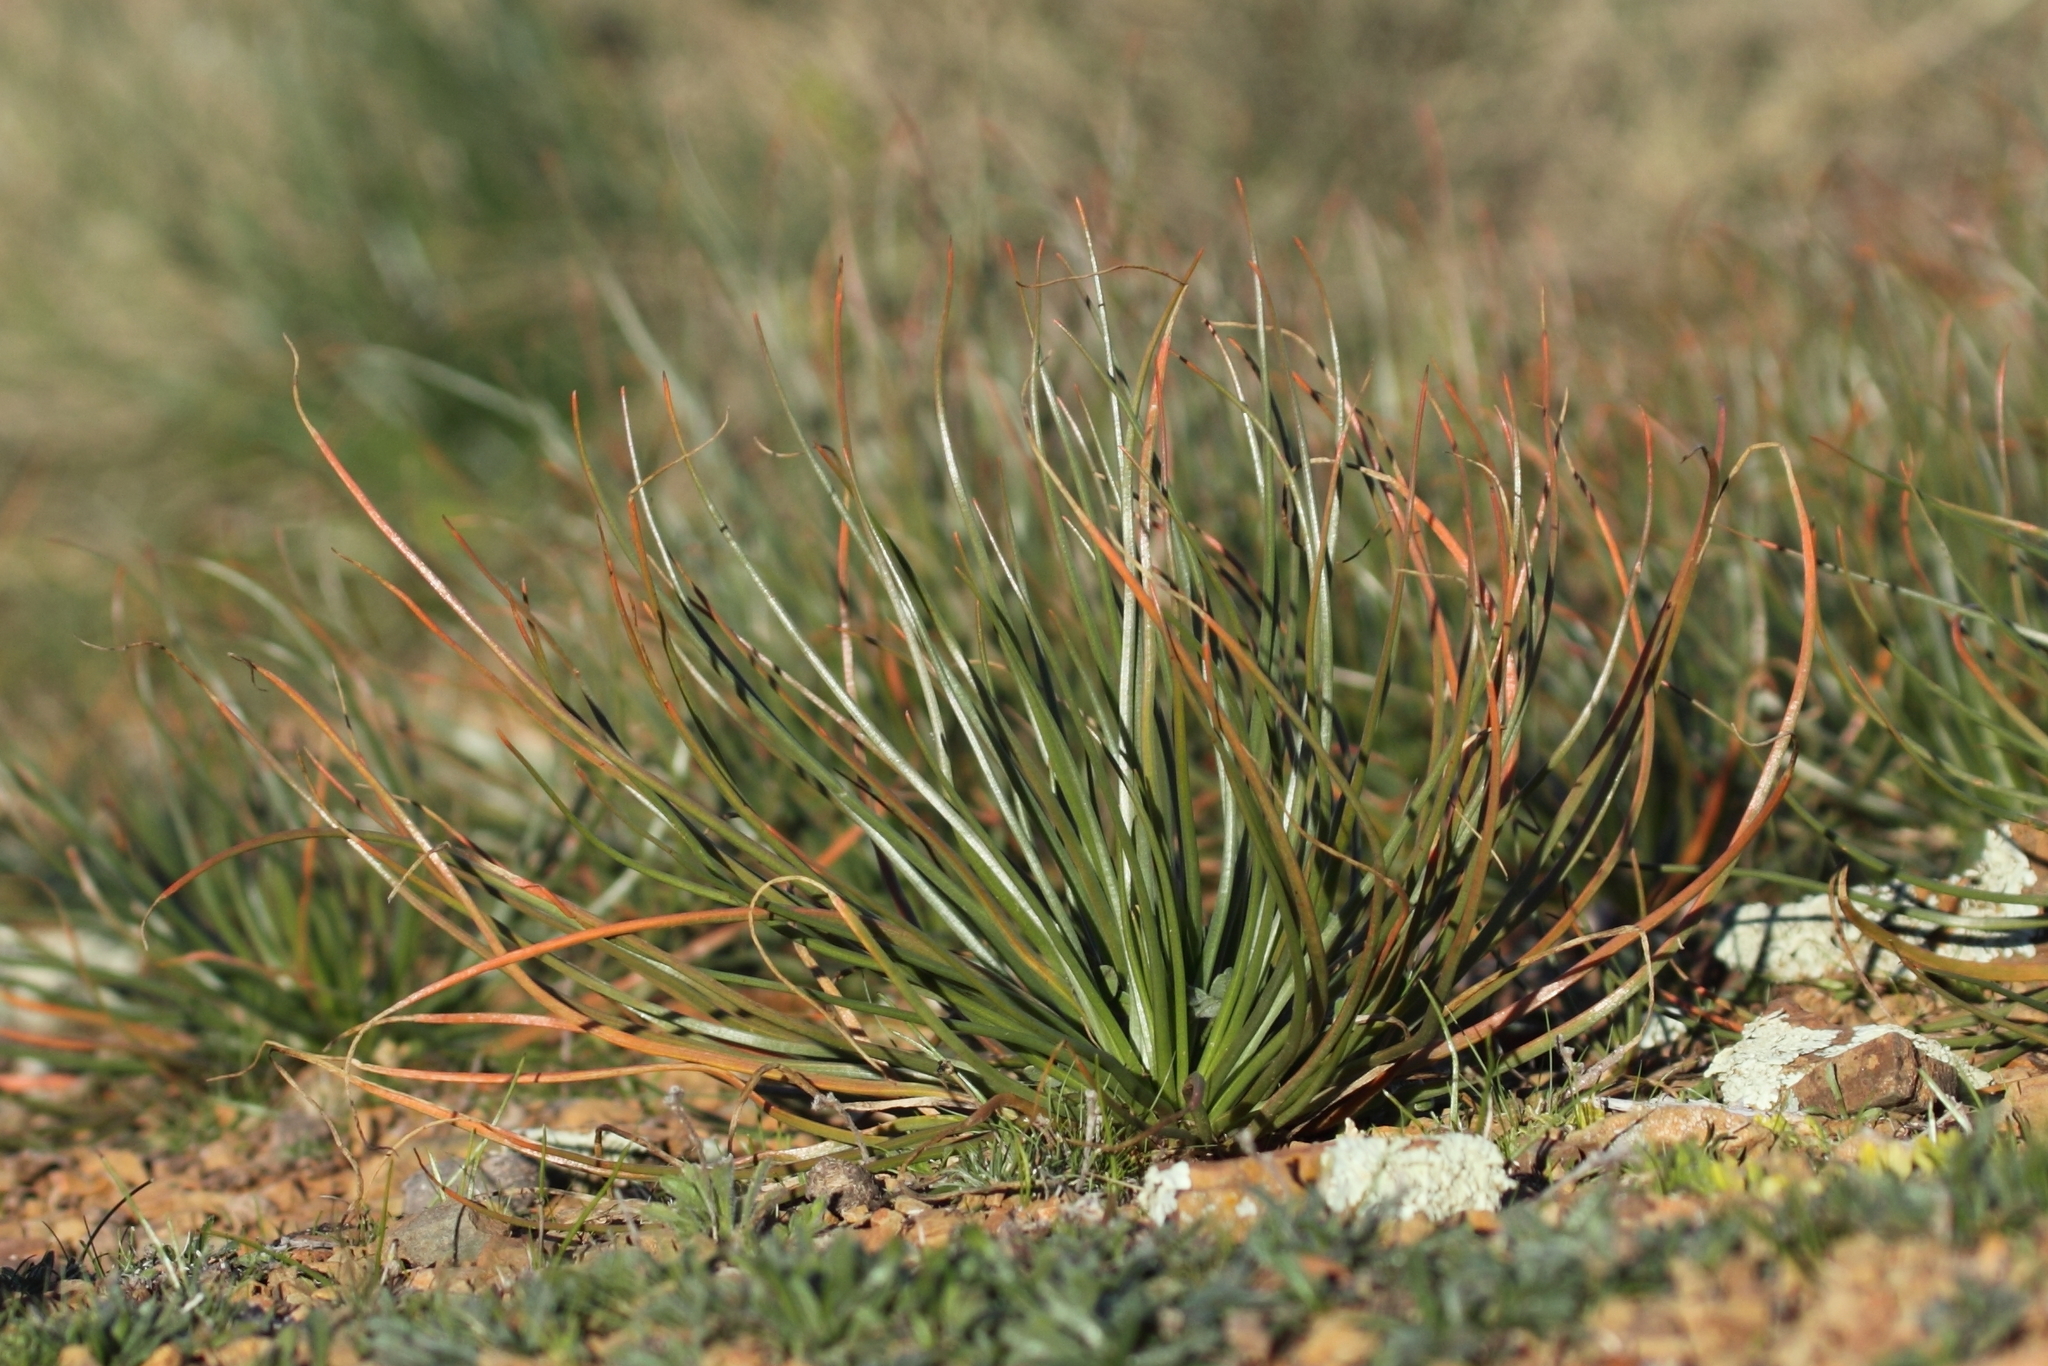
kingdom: Plantae
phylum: Tracheophyta
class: Liliopsida
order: Asparagales
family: Asphodelaceae
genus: Asphodelus
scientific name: Asphodelus fistulosus
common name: Onionweed
